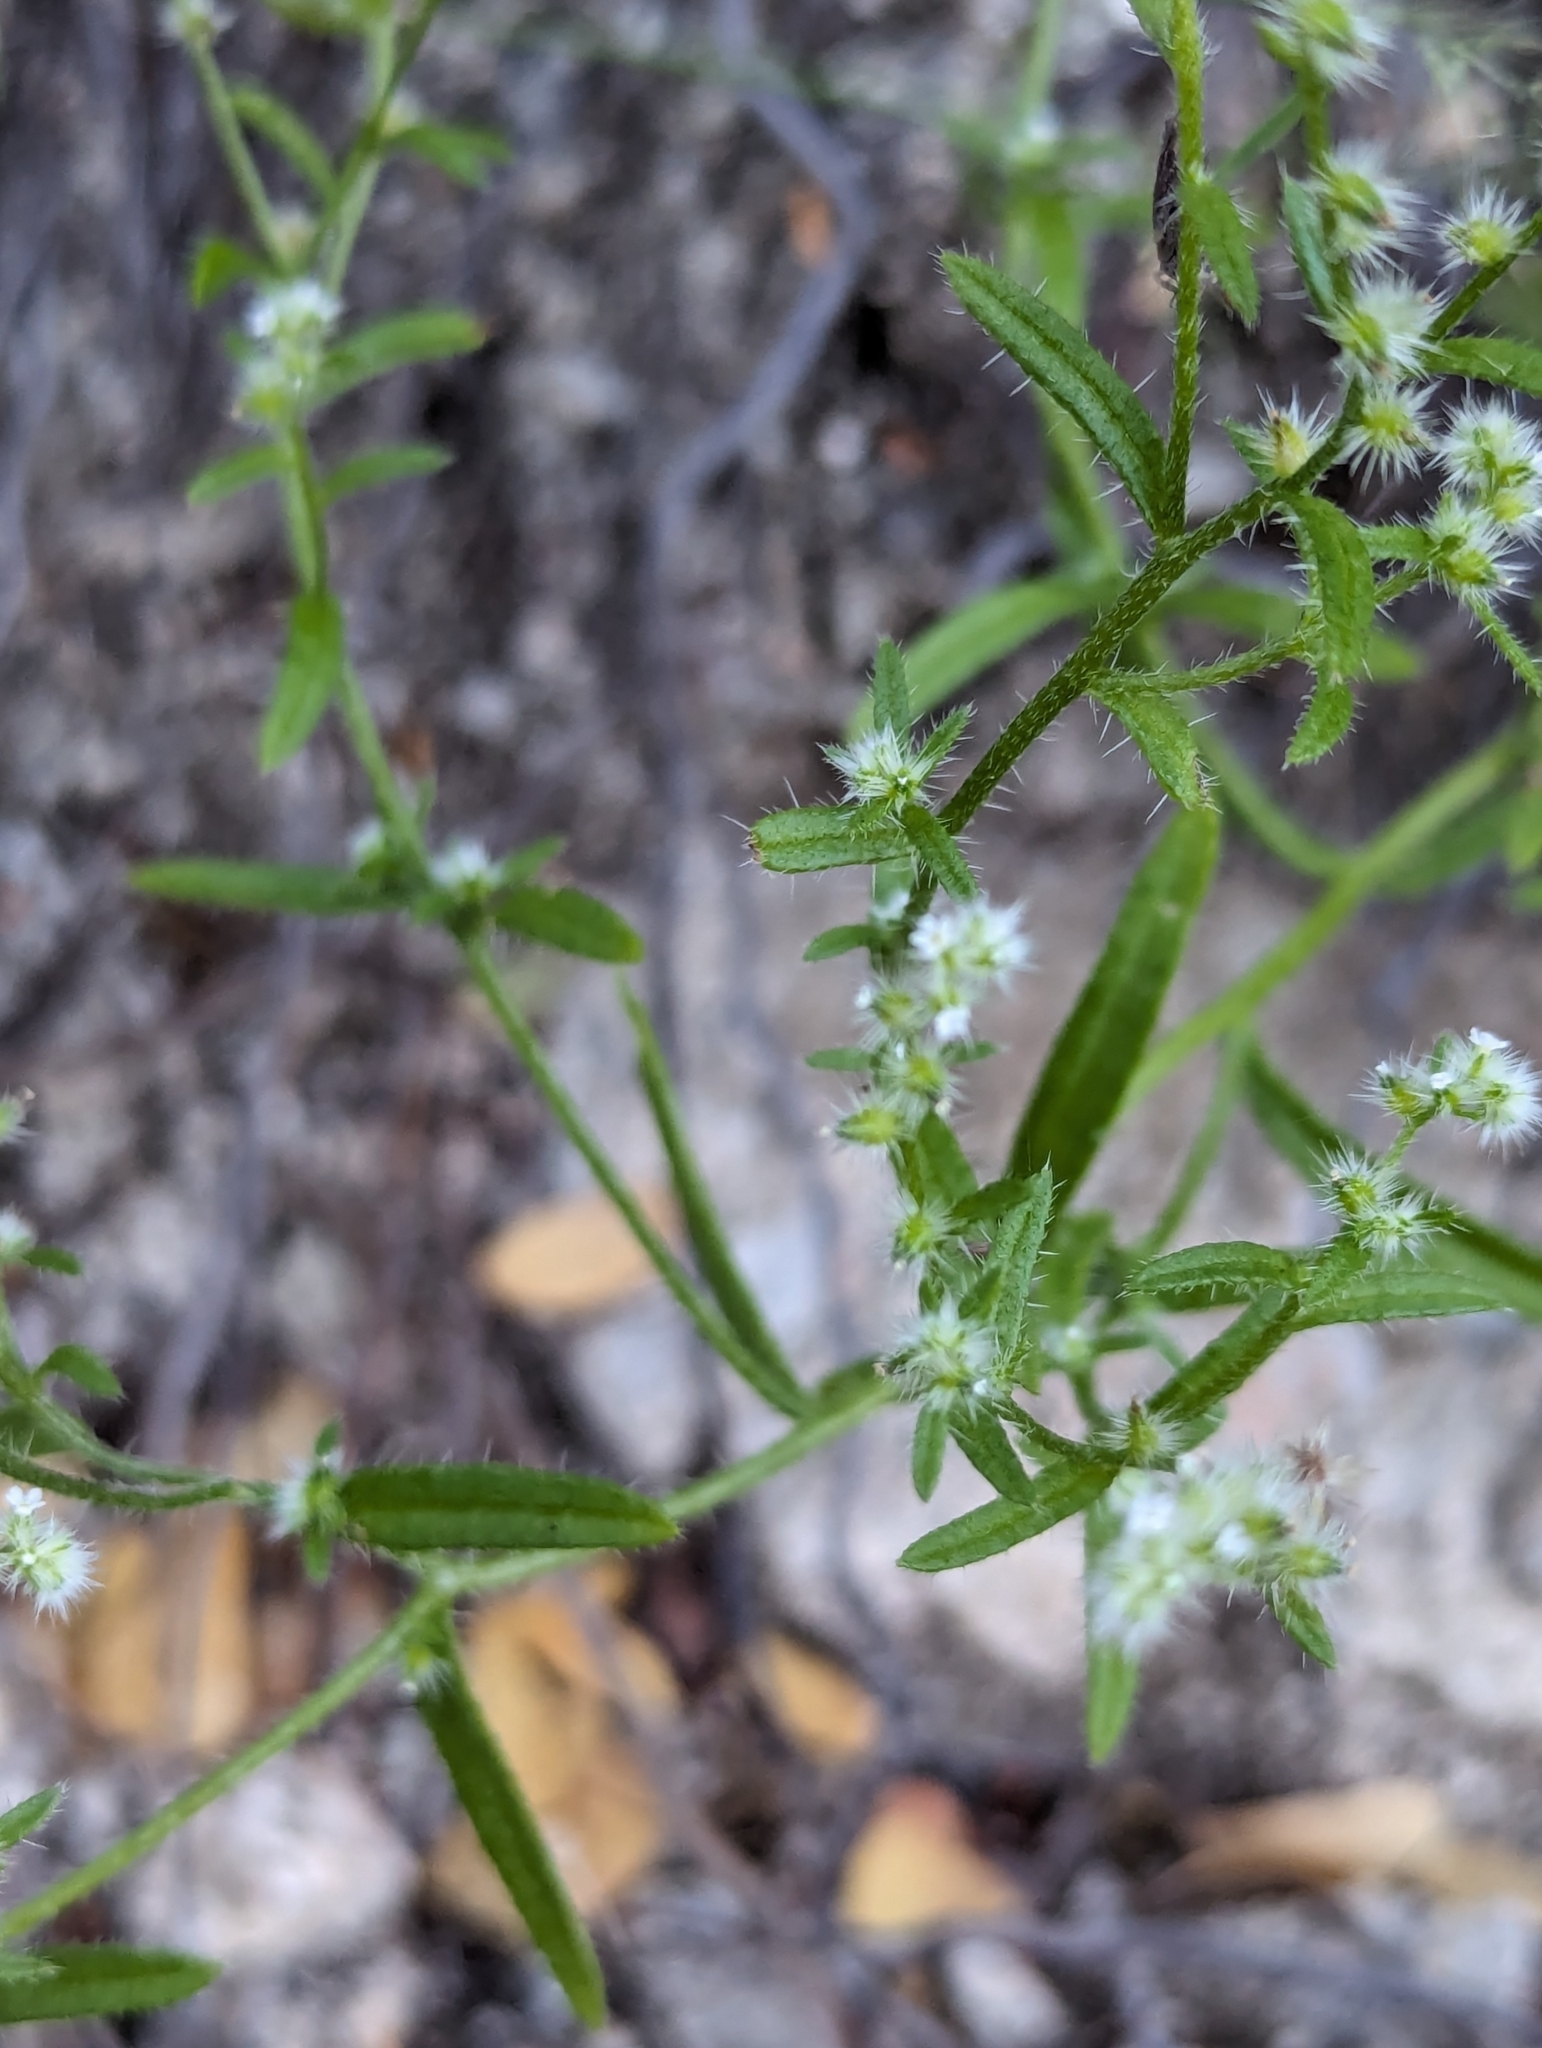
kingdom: Plantae
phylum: Tracheophyta
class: Magnoliopsida
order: Boraginales
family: Boraginaceae
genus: Cryptantha
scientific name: Cryptantha echinosepala
